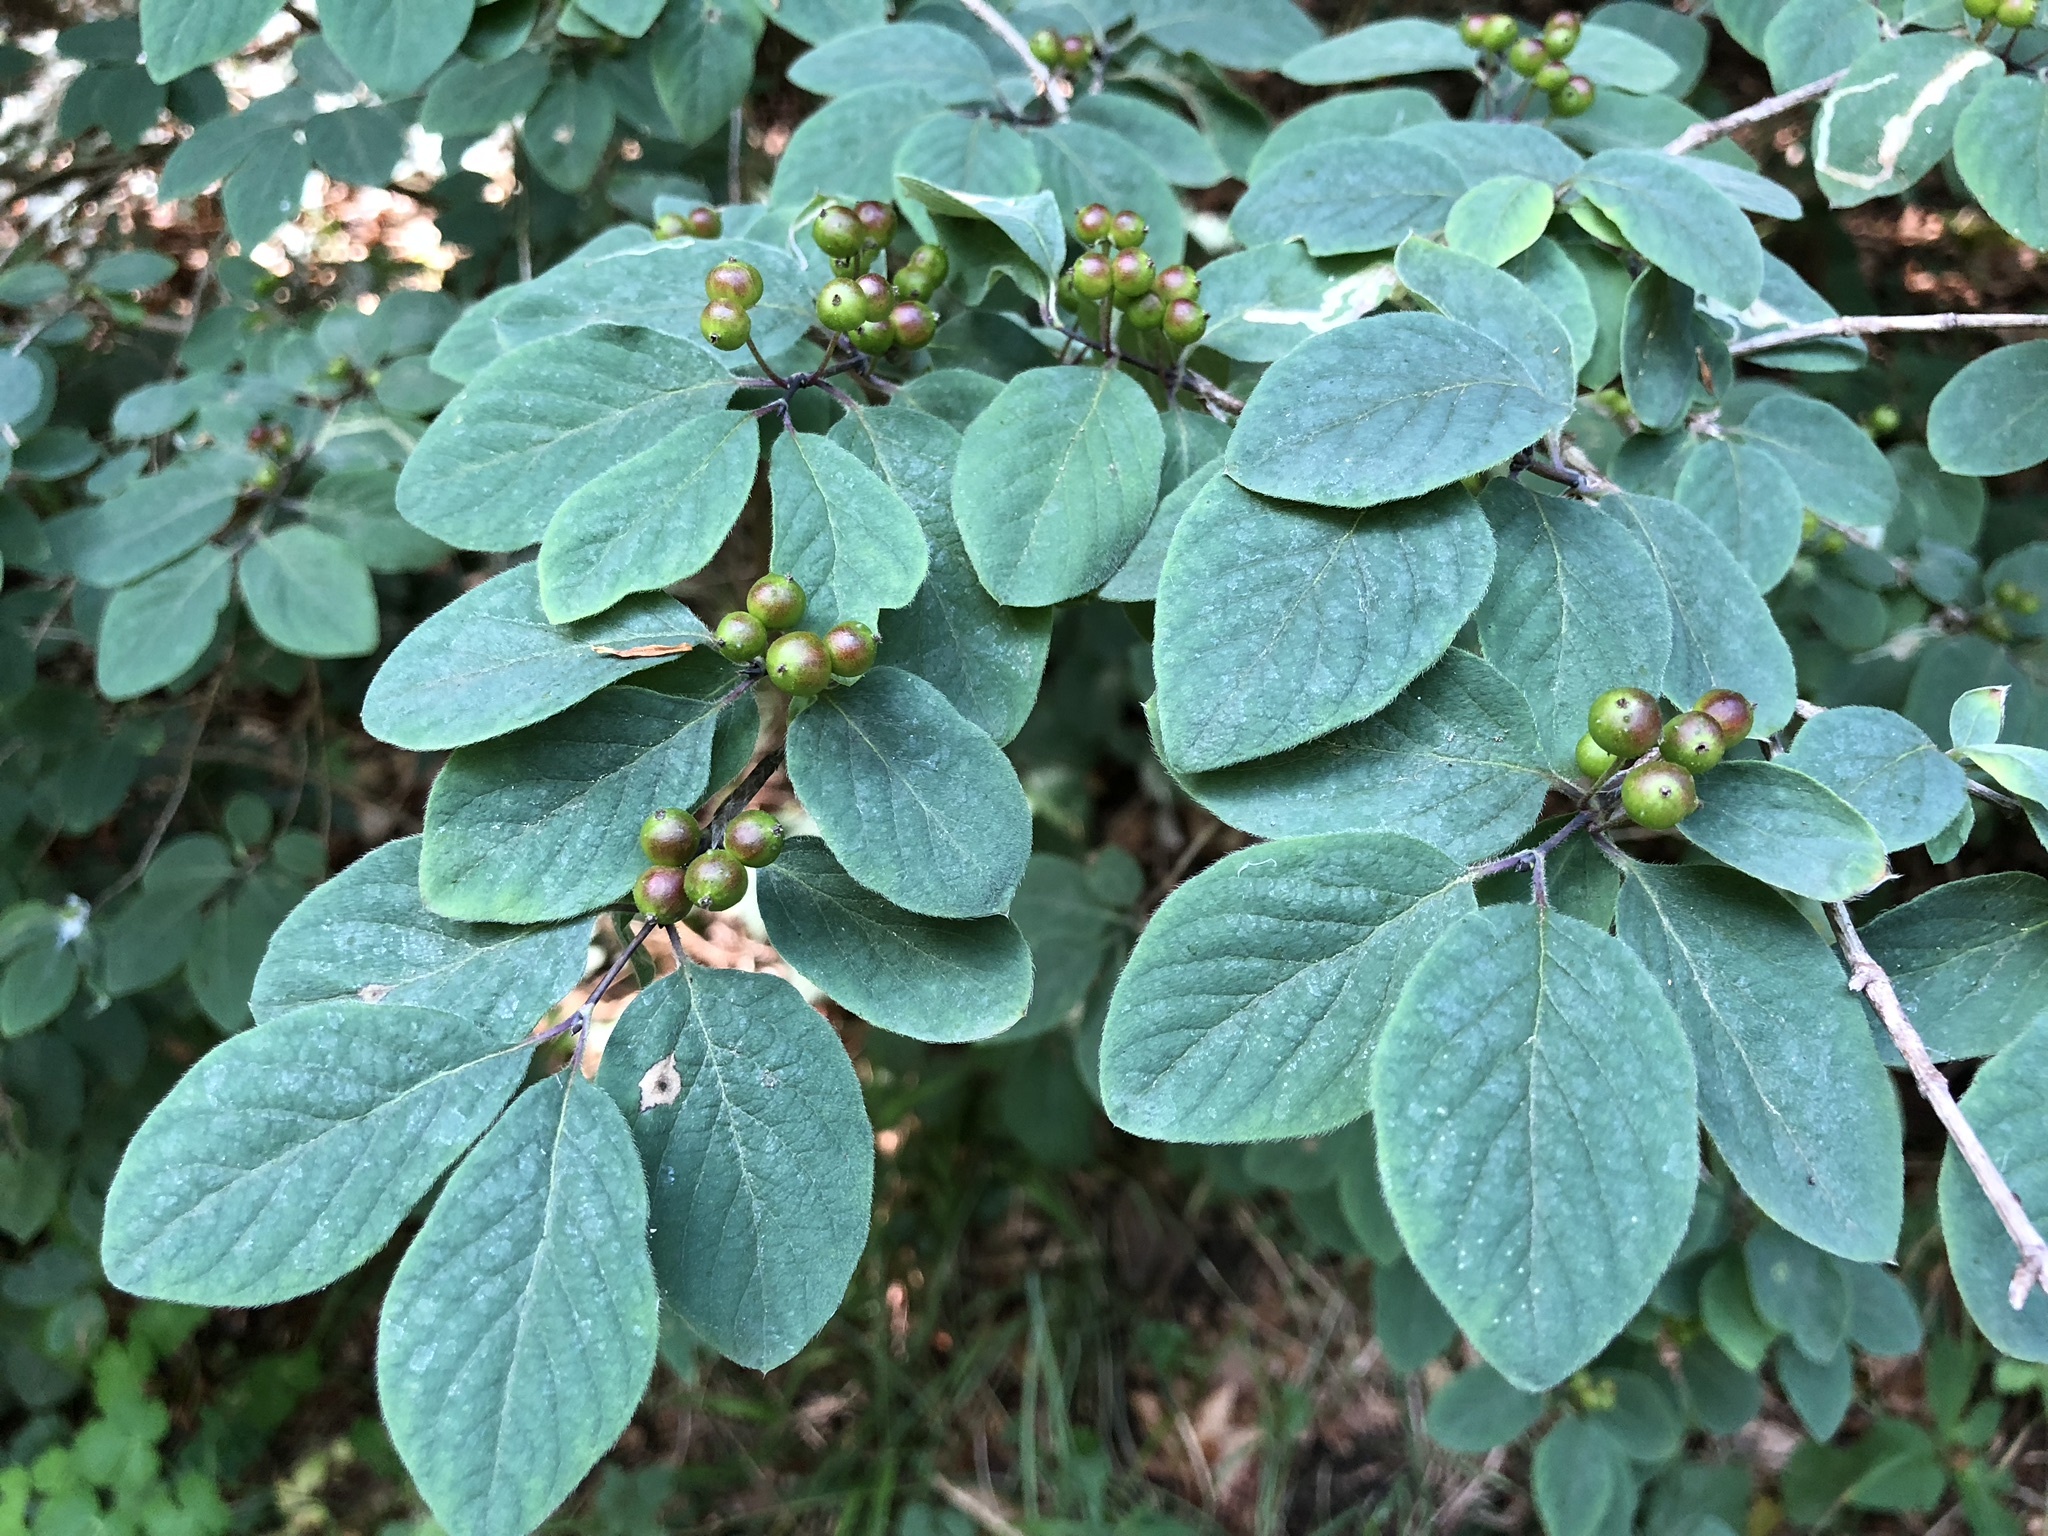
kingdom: Plantae
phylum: Tracheophyta
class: Magnoliopsida
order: Dipsacales
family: Caprifoliaceae
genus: Lonicera
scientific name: Lonicera xylosteum
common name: Fly honeysuckle
